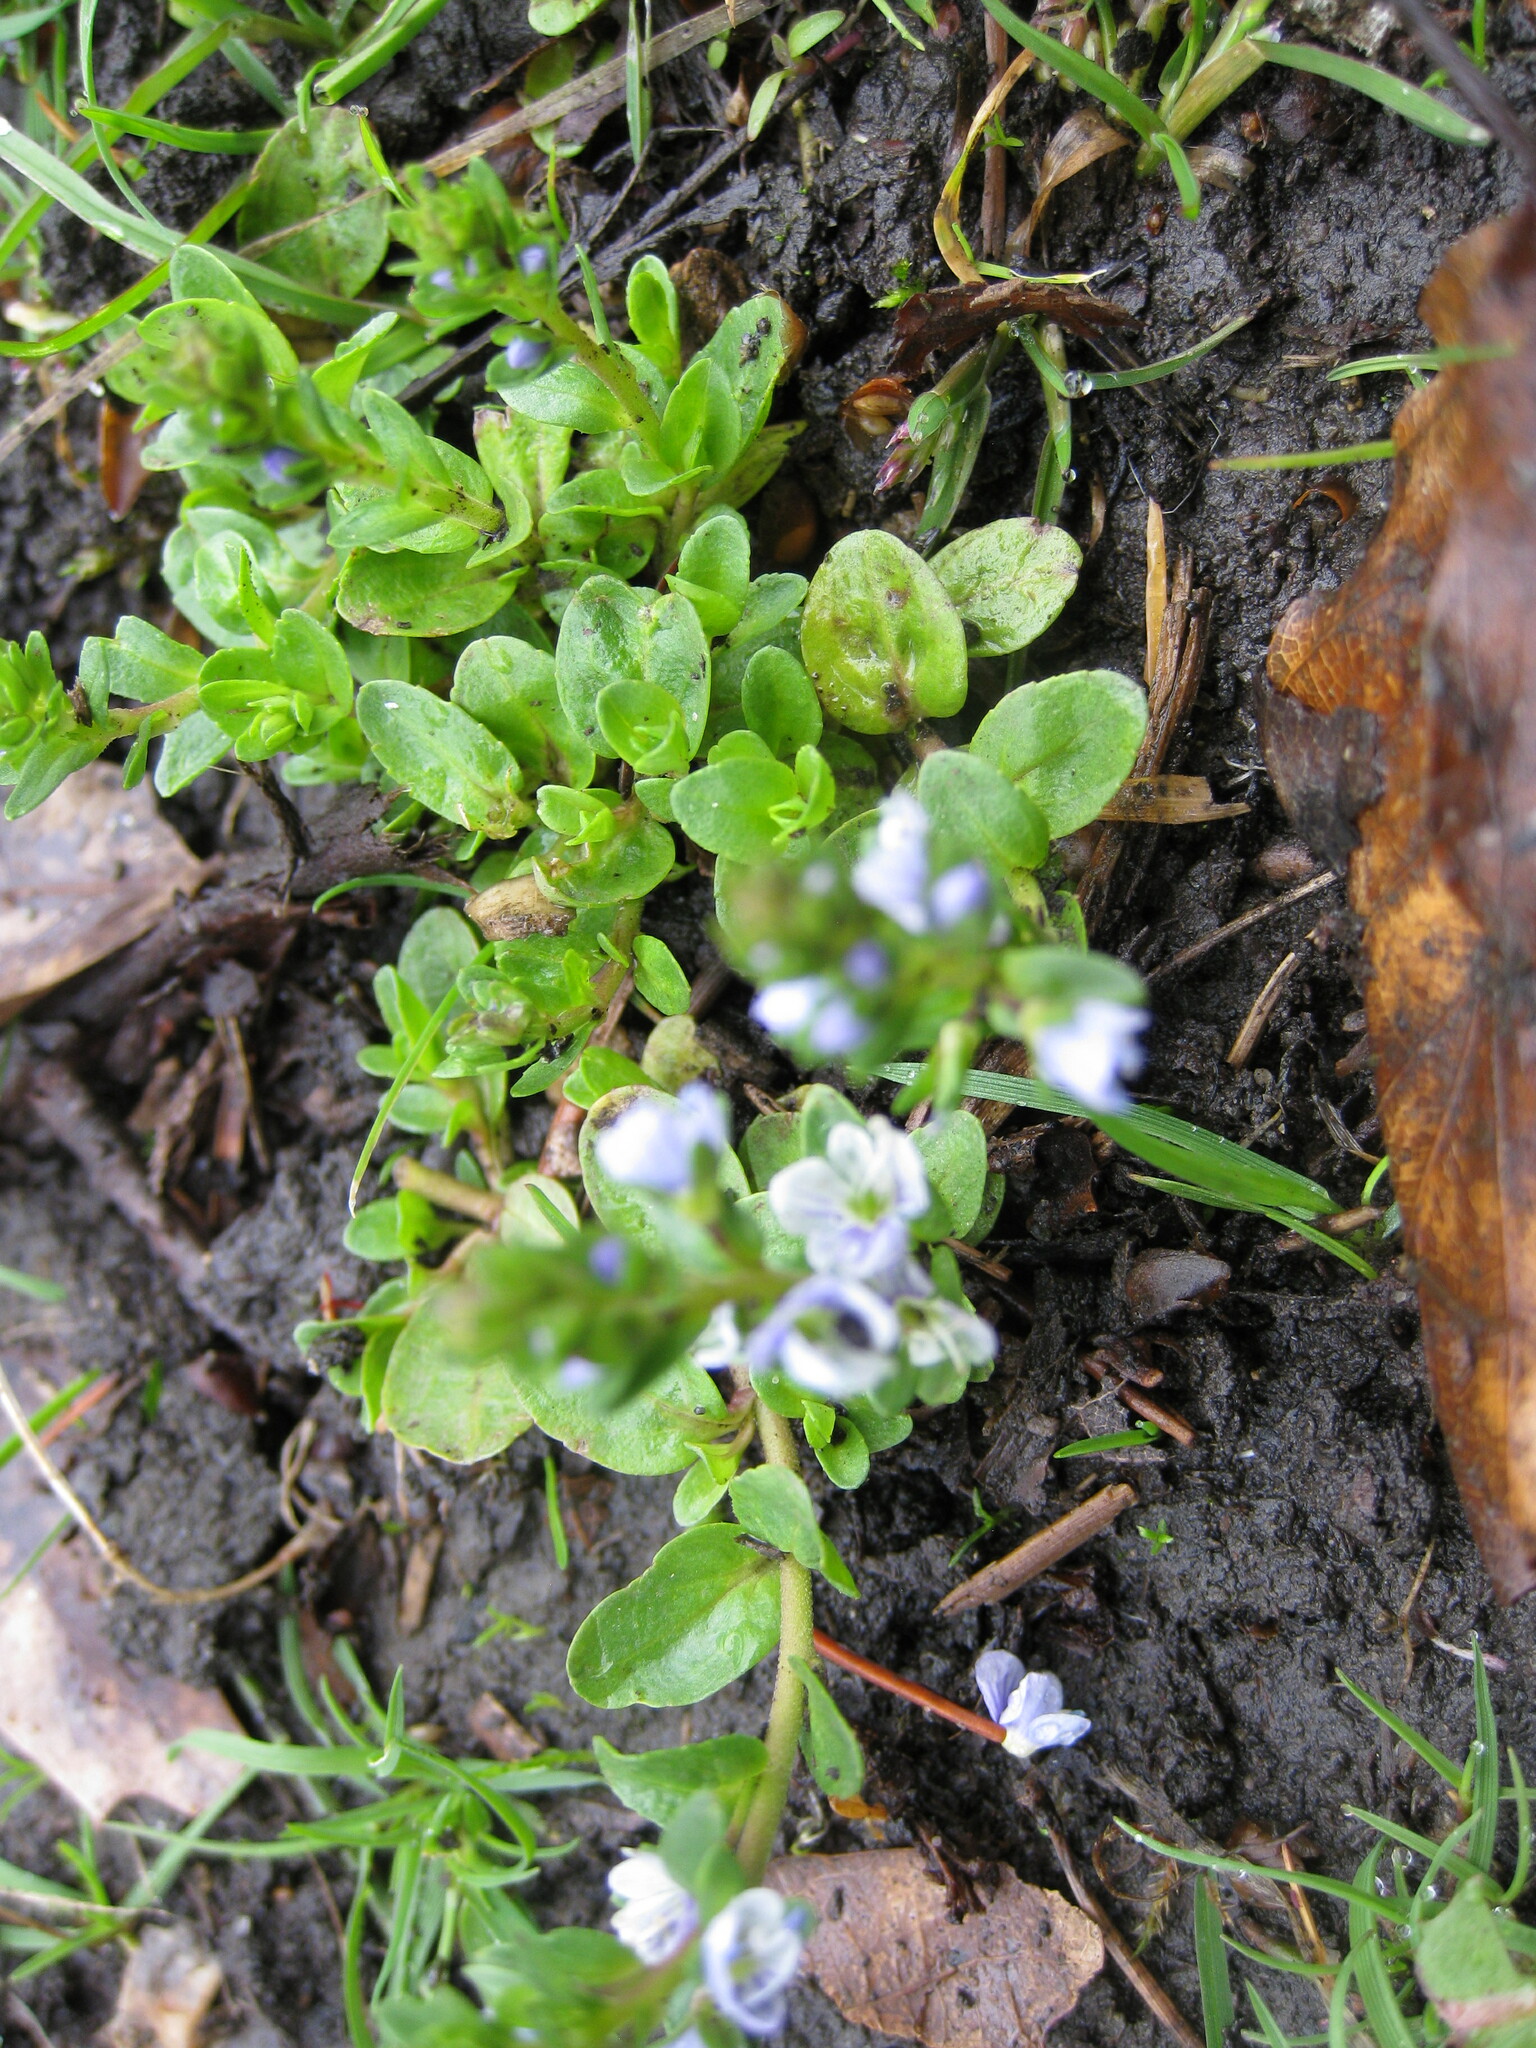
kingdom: Plantae
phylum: Tracheophyta
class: Magnoliopsida
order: Lamiales
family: Plantaginaceae
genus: Veronica
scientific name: Veronica serpyllifolia
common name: Thyme-leaved speedwell
